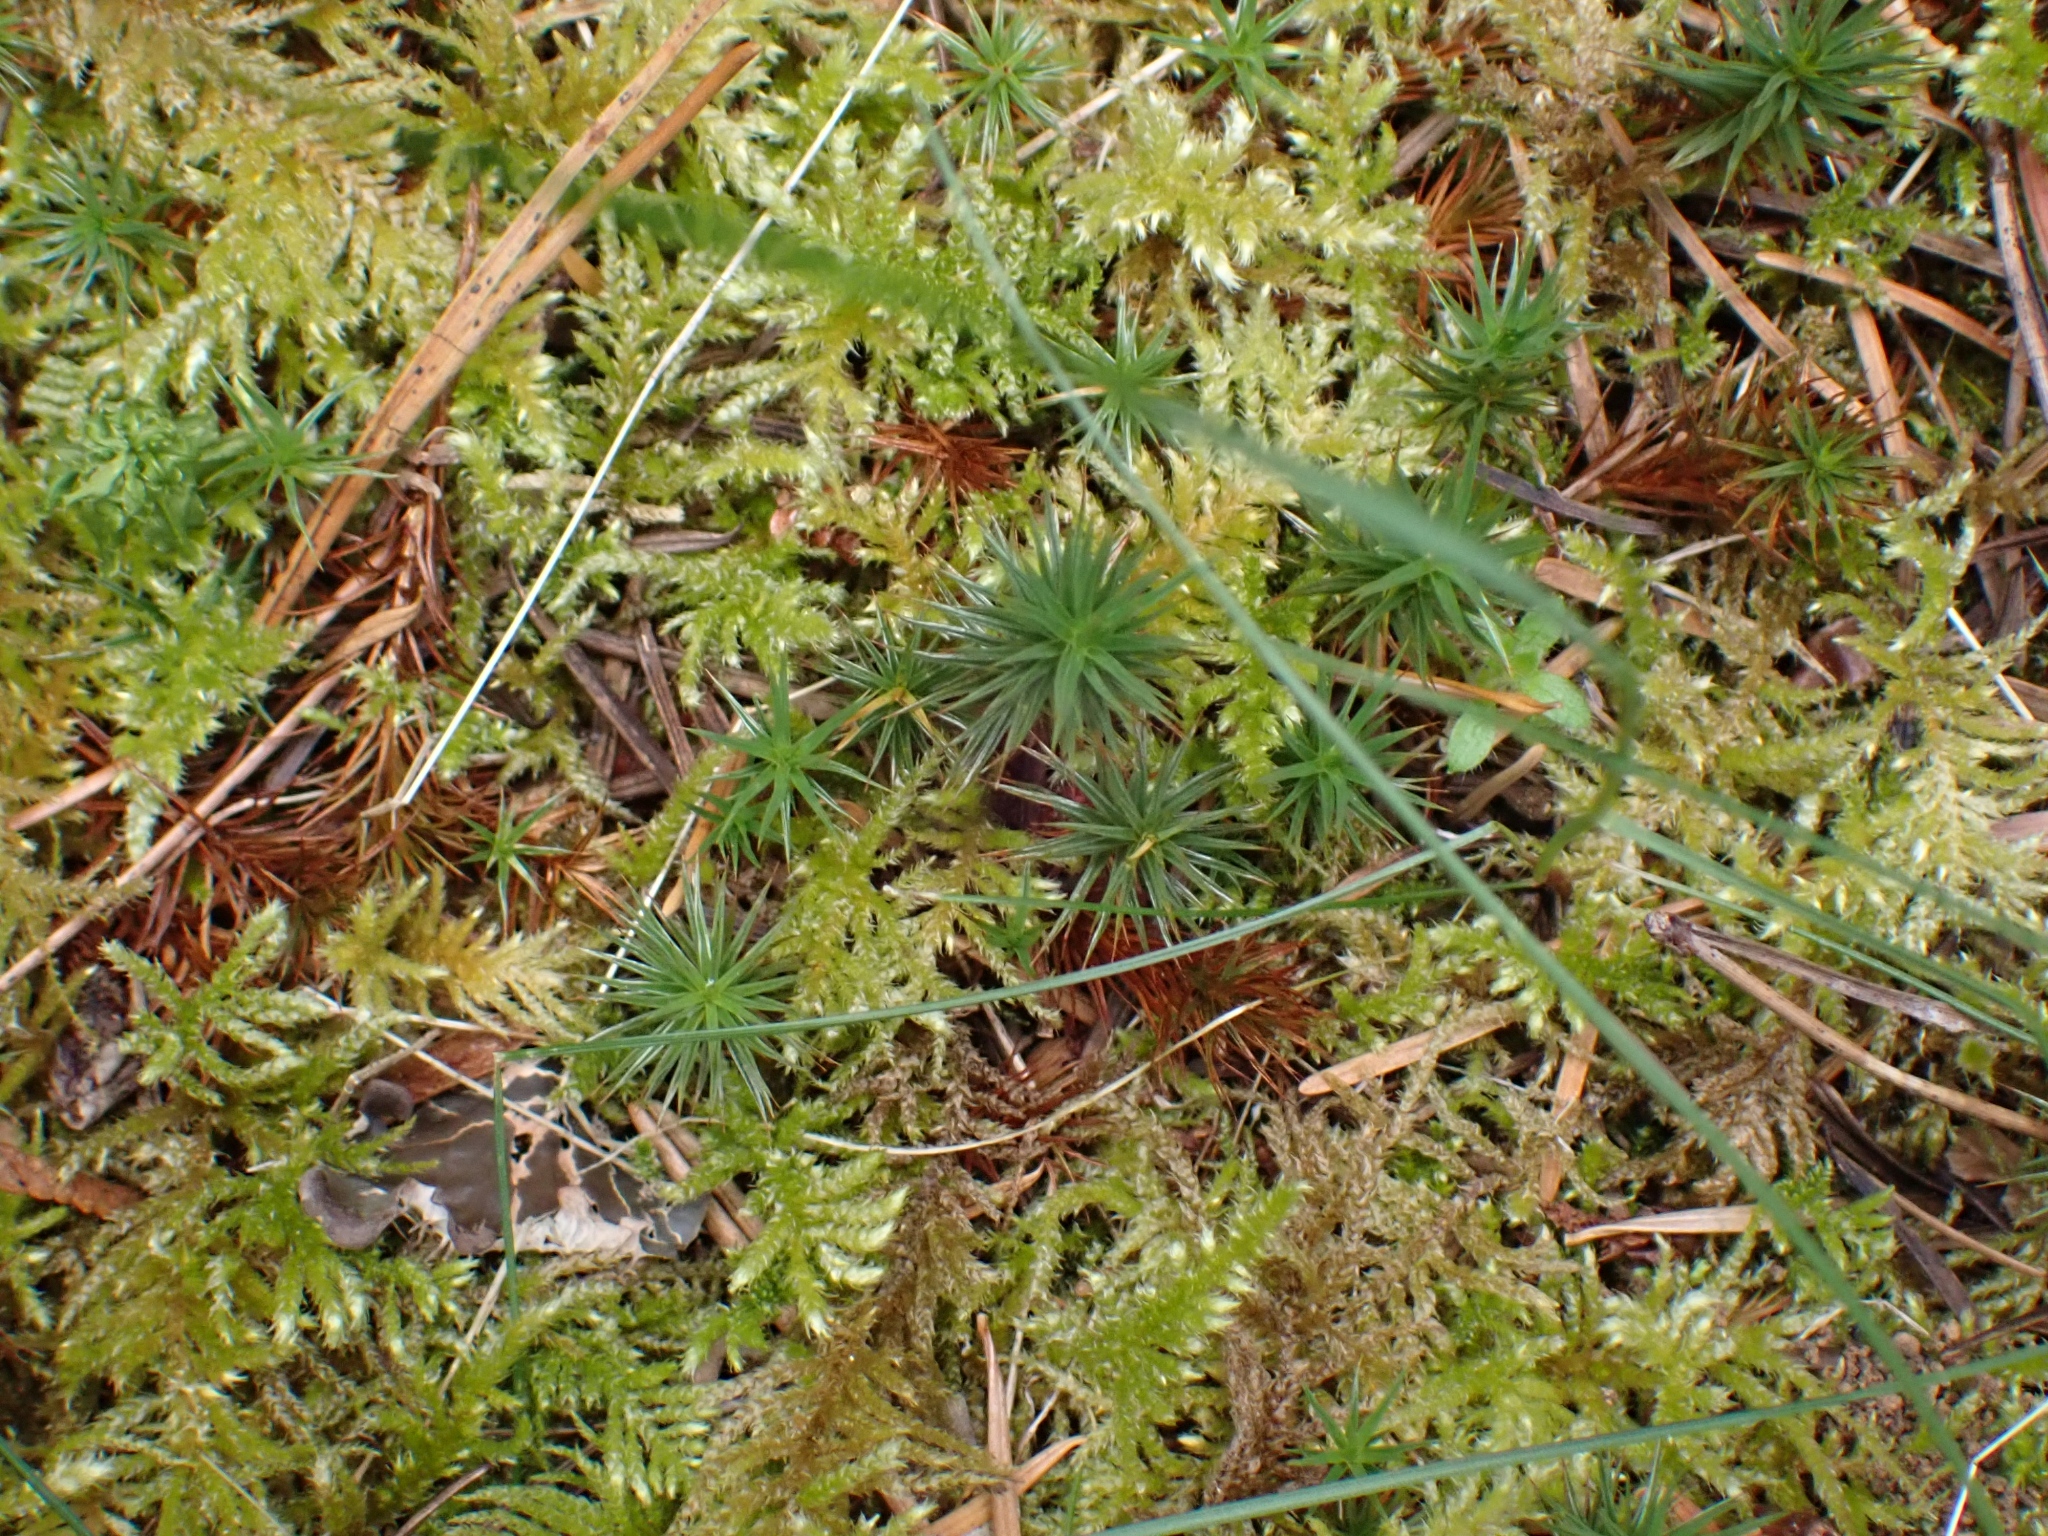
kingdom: Plantae
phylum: Bryophyta
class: Polytrichopsida
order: Polytrichales
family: Polytrichaceae
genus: Polytrichum
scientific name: Polytrichum juniperinum
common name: Juniper haircap moss
